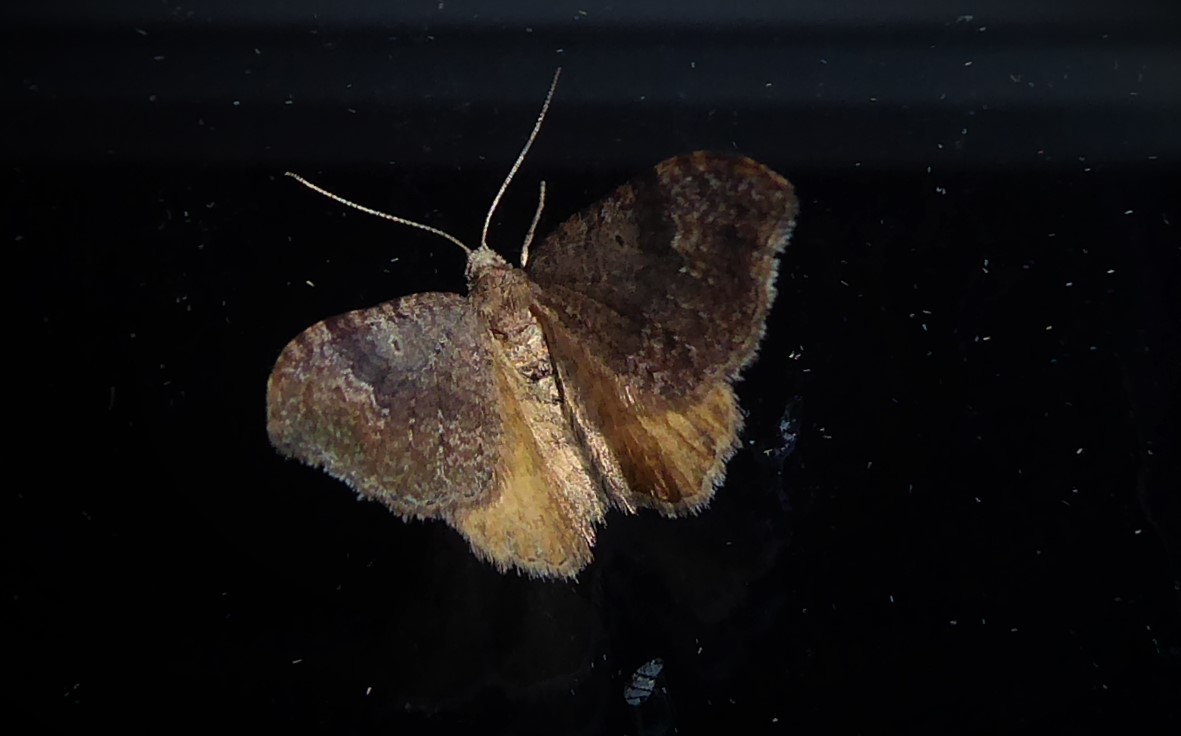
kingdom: Animalia
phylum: Arthropoda
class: Insecta
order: Lepidoptera
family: Geometridae
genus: Homodotis
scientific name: Homodotis megaspilata
